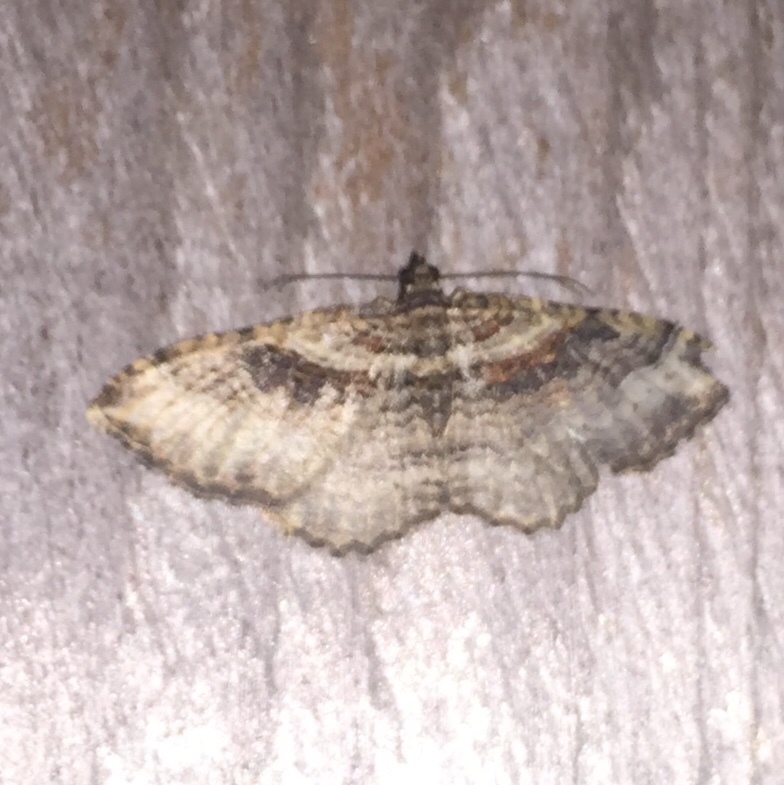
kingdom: Animalia
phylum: Arthropoda
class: Insecta
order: Lepidoptera
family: Geometridae
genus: Costaconvexa
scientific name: Costaconvexa centrostrigaria
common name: Bent-line carpet
